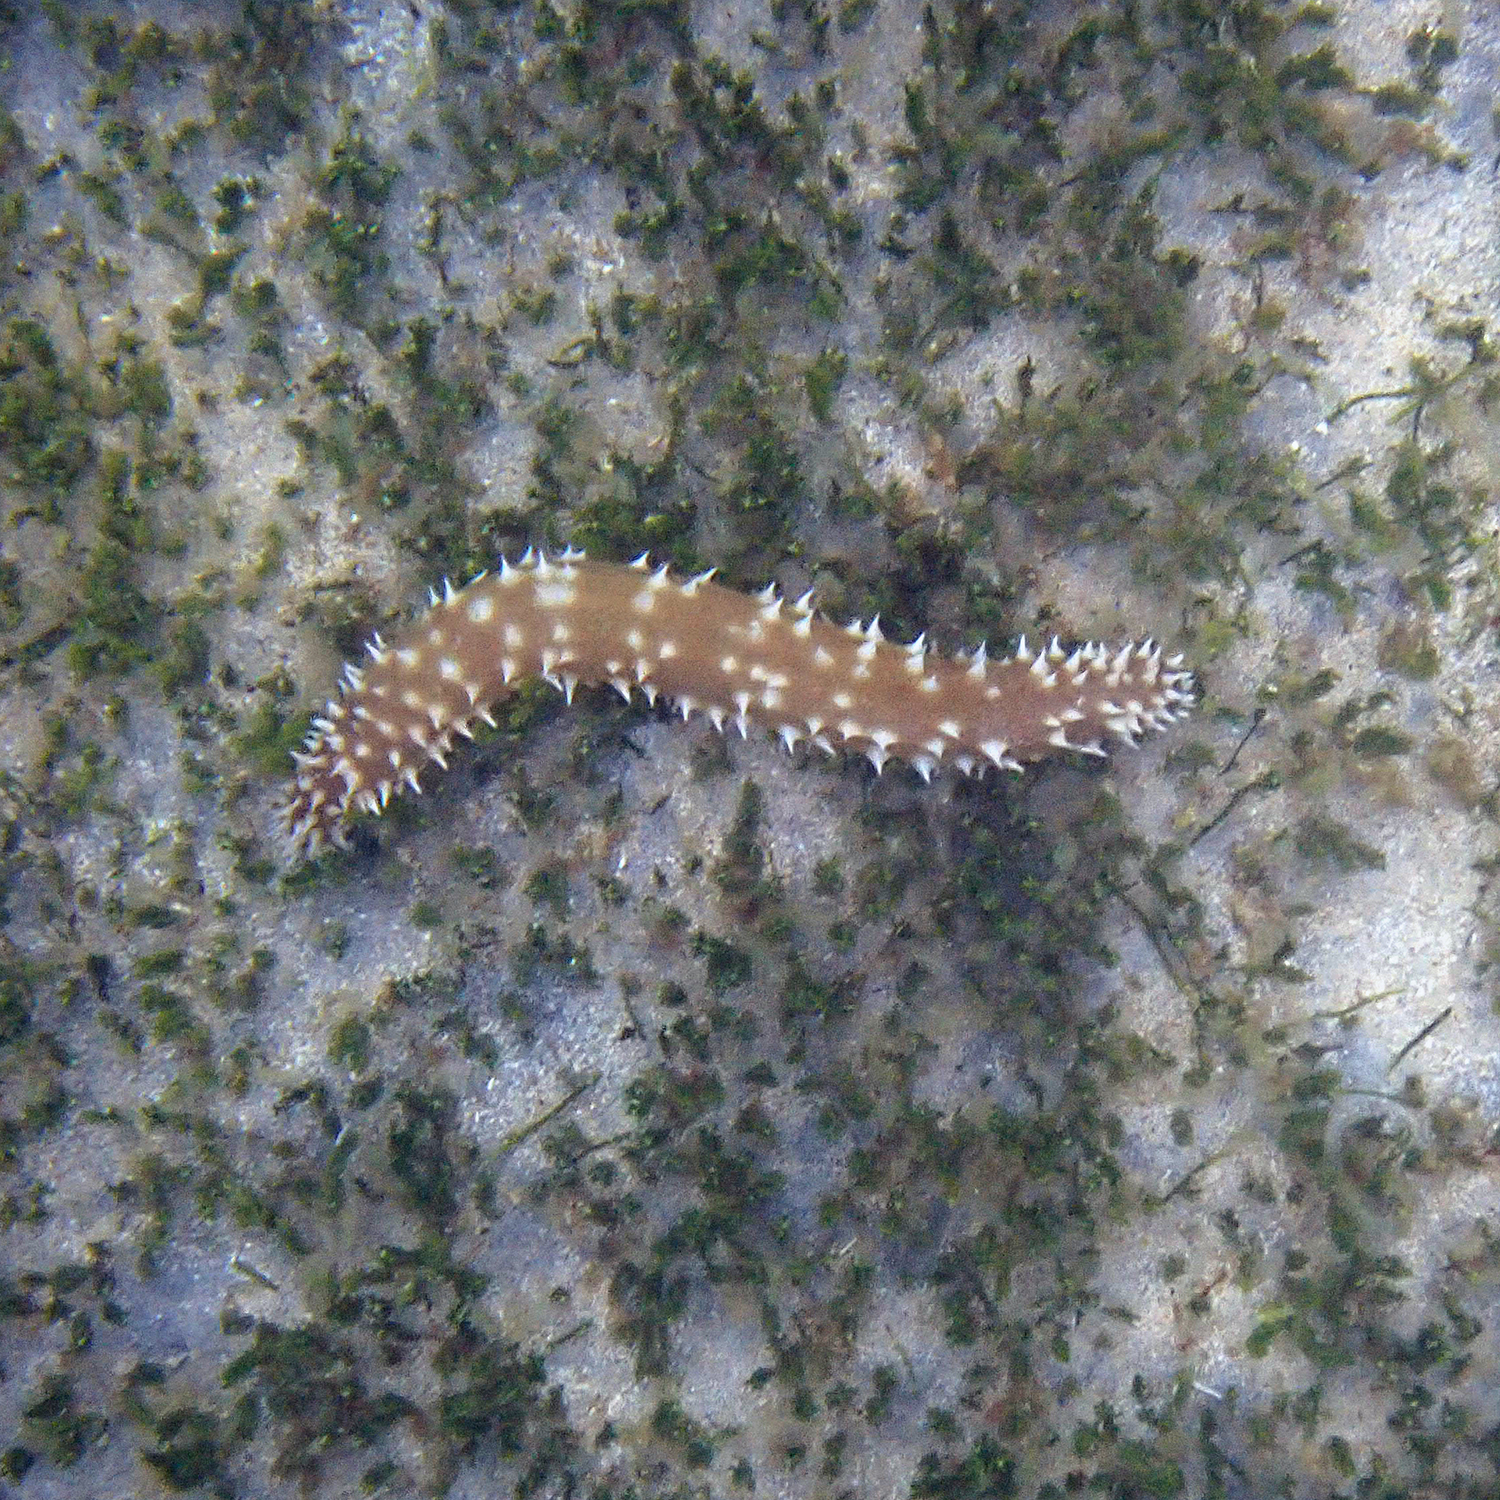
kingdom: Animalia
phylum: Echinodermata
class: Holothuroidea
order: Holothuriida
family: Holothuriidae
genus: Holothuria
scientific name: Holothuria hilla
